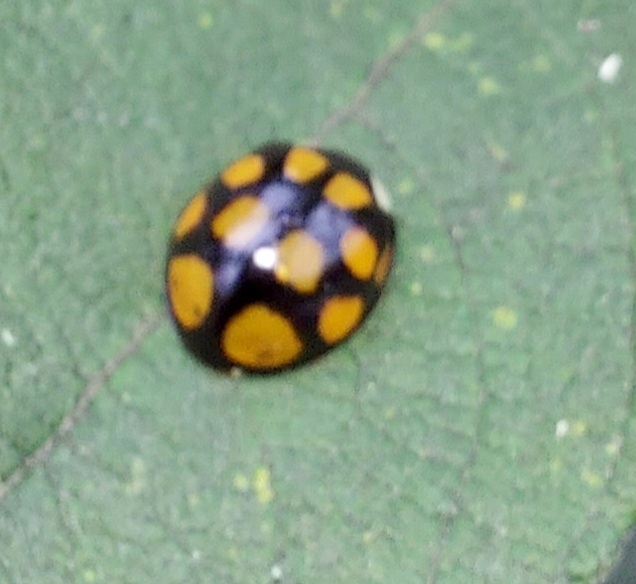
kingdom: Animalia
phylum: Arthropoda
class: Insecta
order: Coleoptera
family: Coccinellidae
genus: Harmonia
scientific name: Harmonia axyridis
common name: Harlequin ladybird
